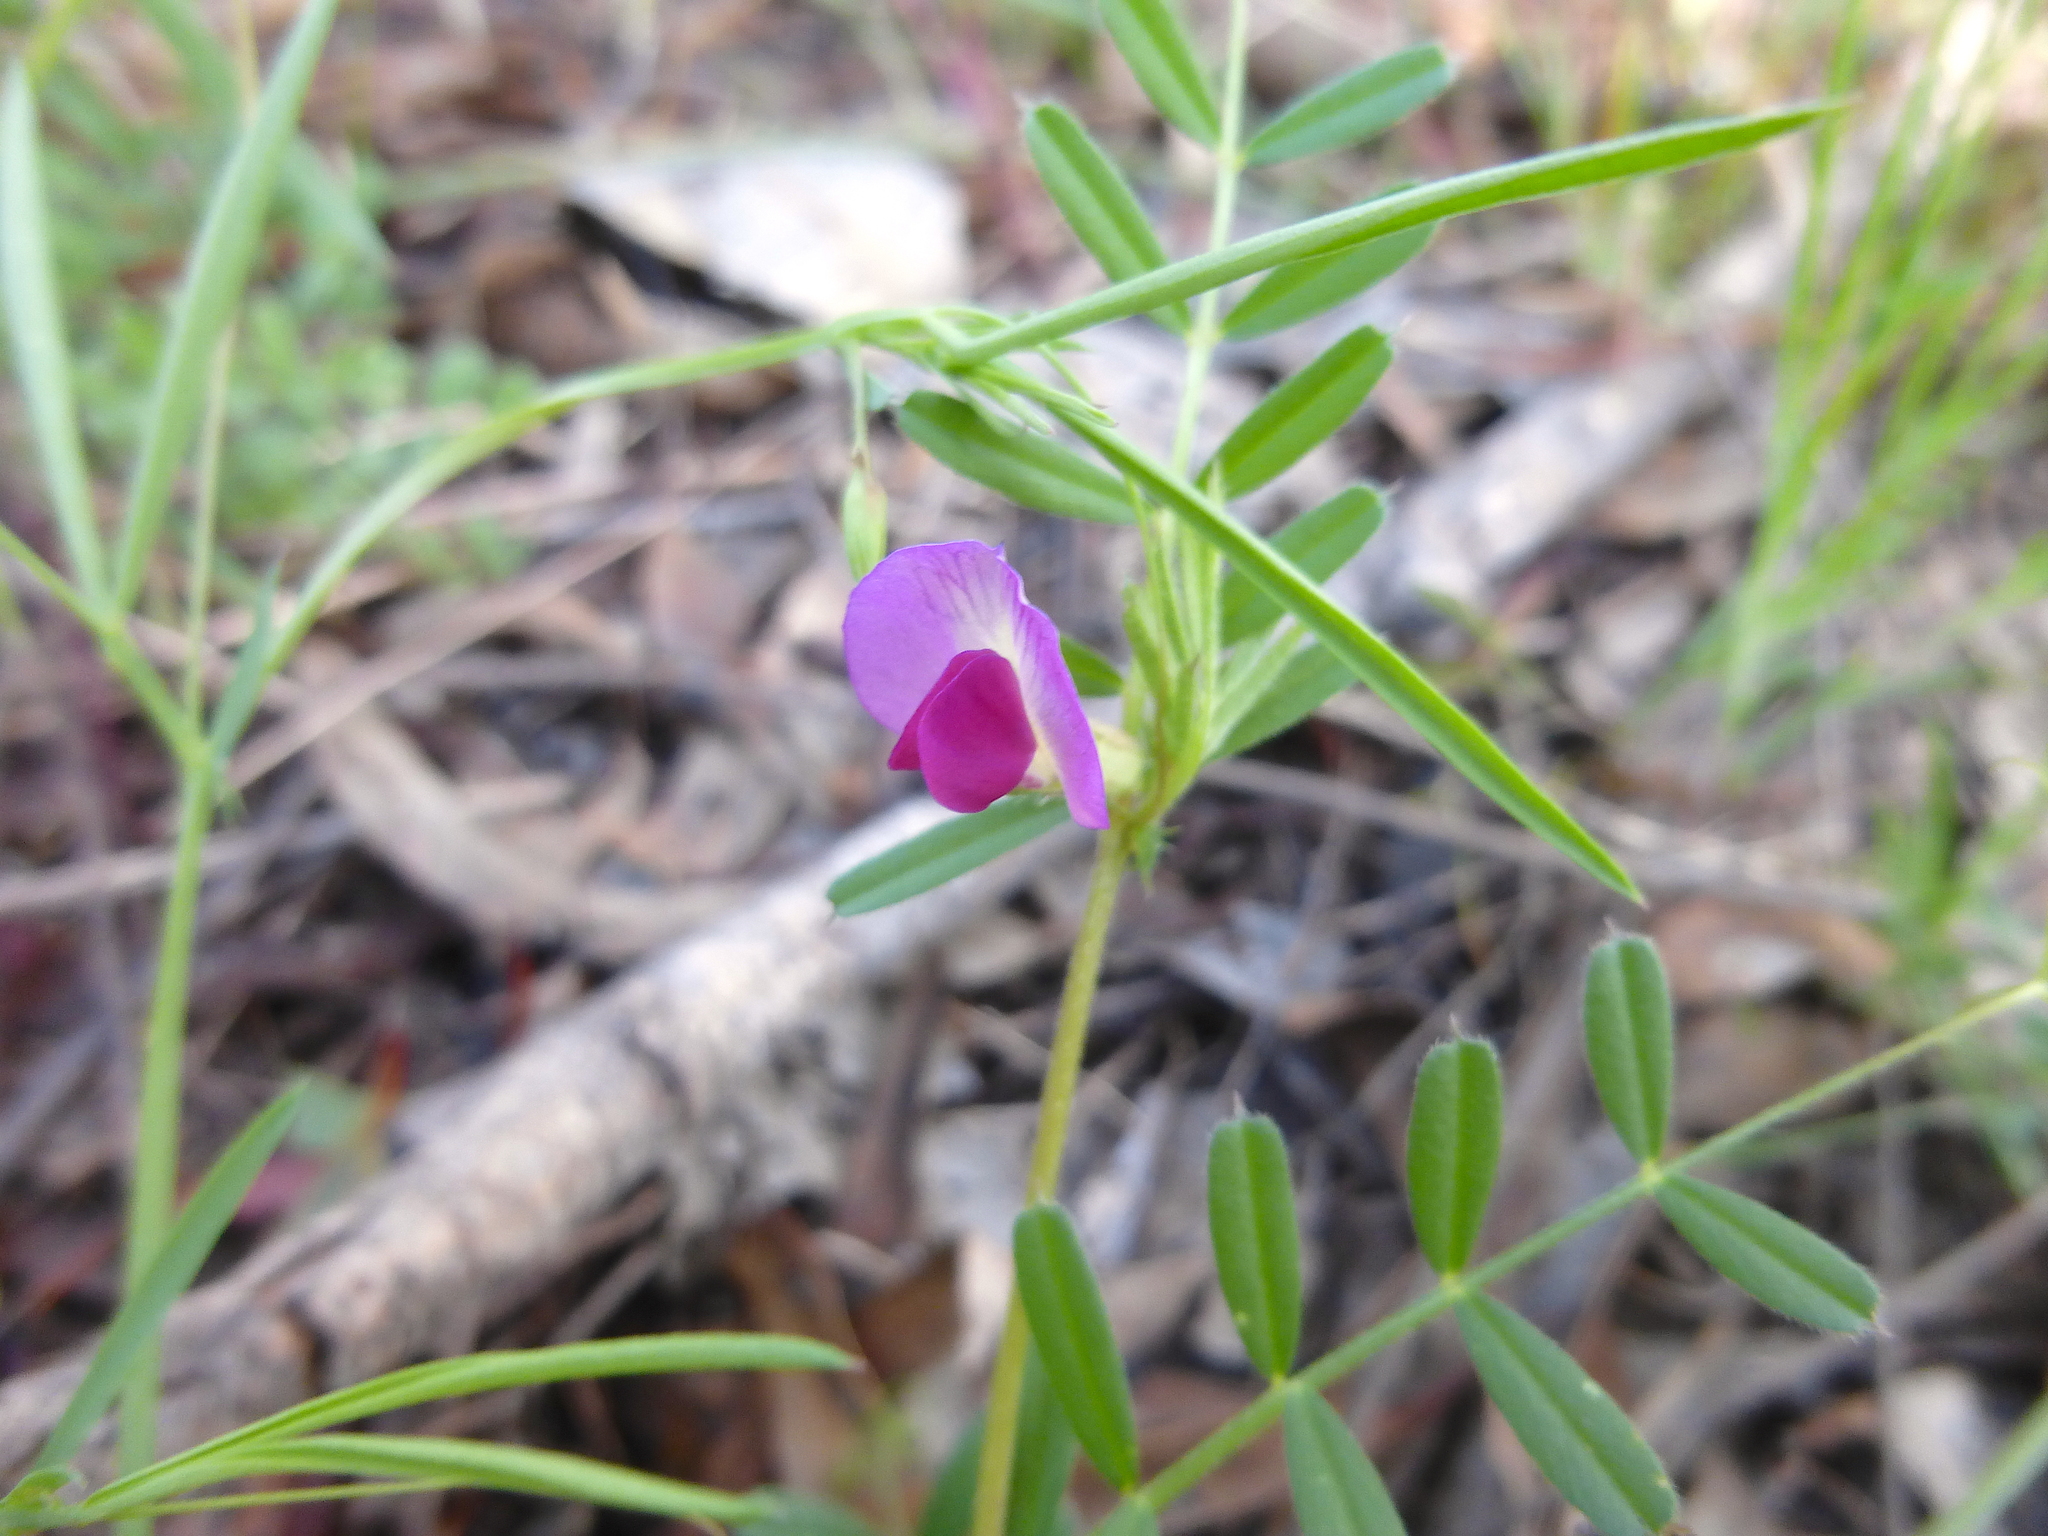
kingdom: Plantae
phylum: Tracheophyta
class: Magnoliopsida
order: Fabales
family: Fabaceae
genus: Vicia
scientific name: Vicia sativa
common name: Garden vetch
